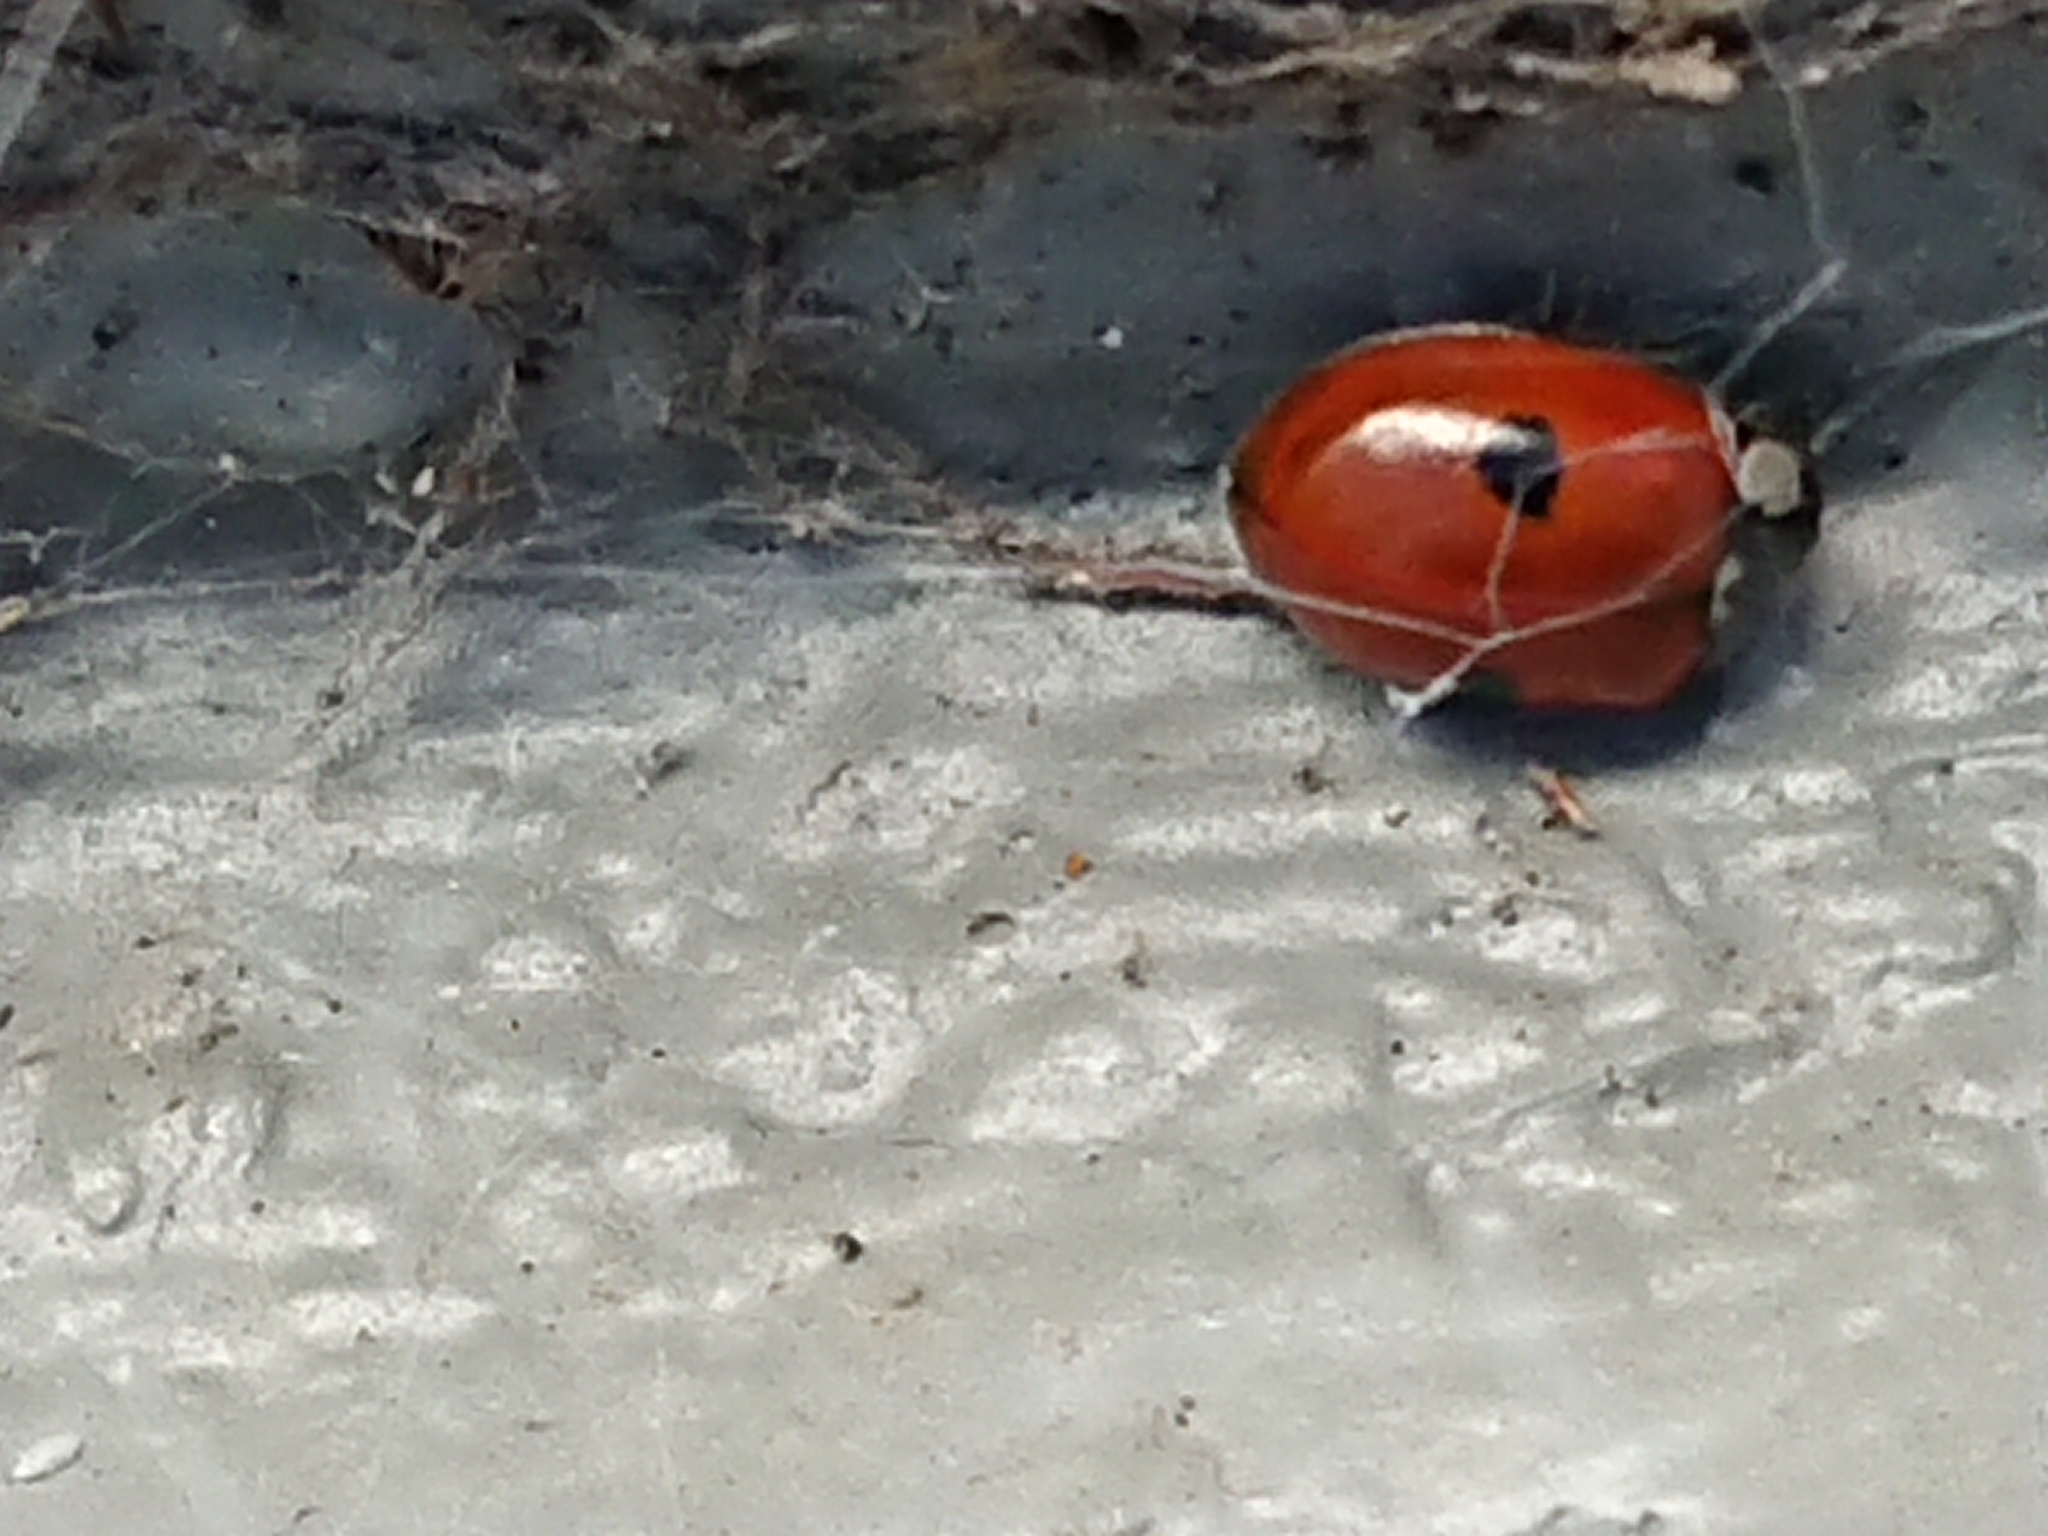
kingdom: Animalia
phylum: Arthropoda
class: Insecta
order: Coleoptera
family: Coccinellidae
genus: Adalia
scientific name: Adalia bipunctata
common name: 2-spot ladybird
